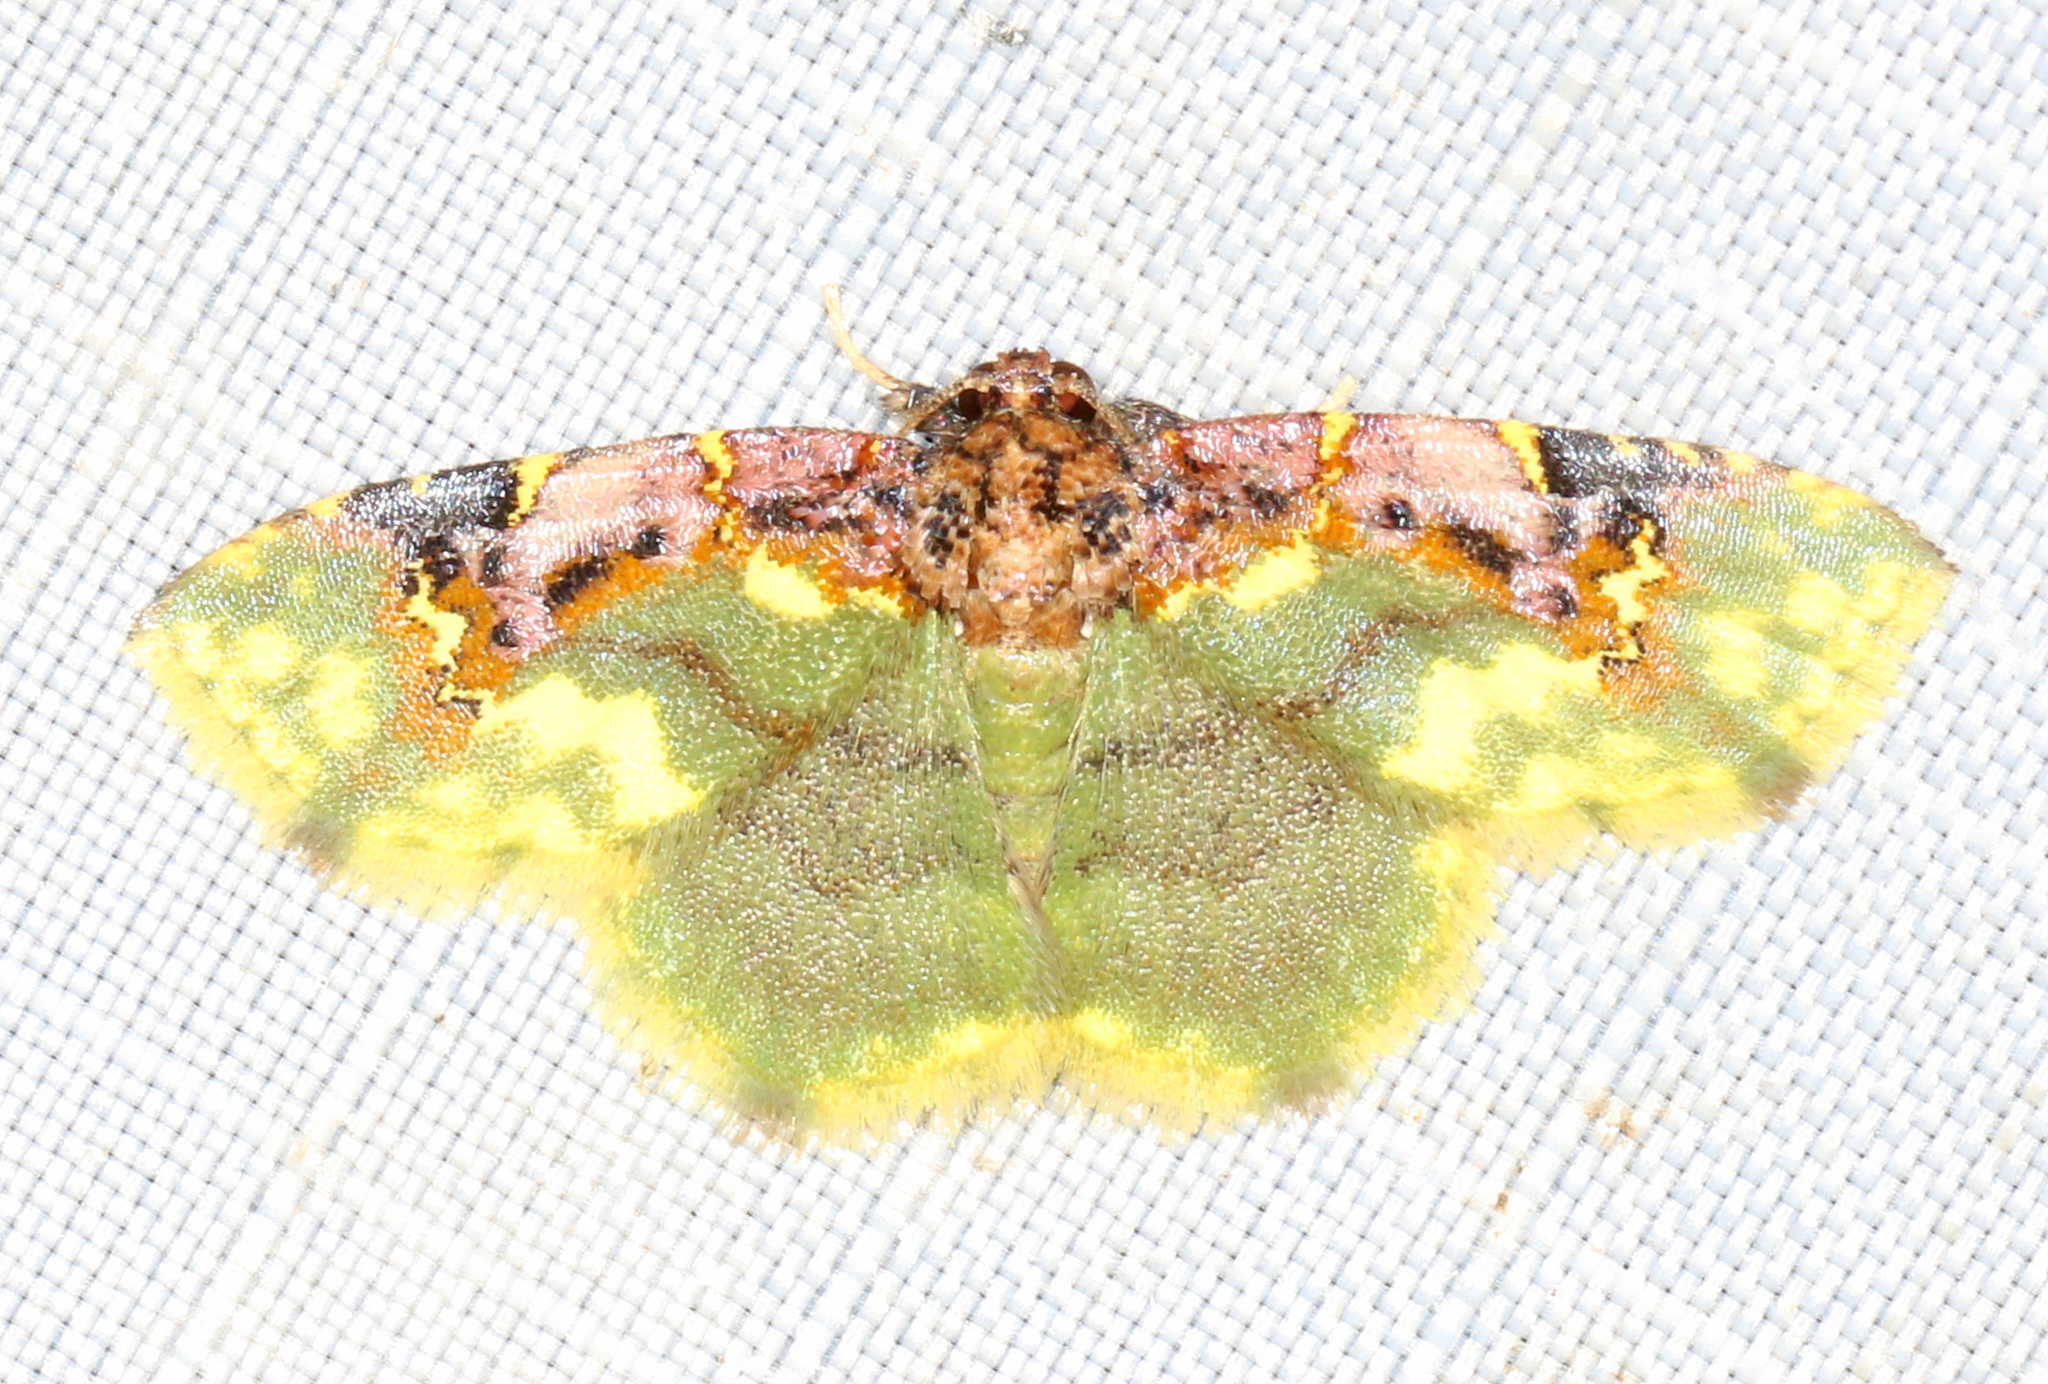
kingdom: Animalia
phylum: Arthropoda
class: Insecta
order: Lepidoptera
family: Noctuidae
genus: Syngatha
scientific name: Syngatha latiflavaria
